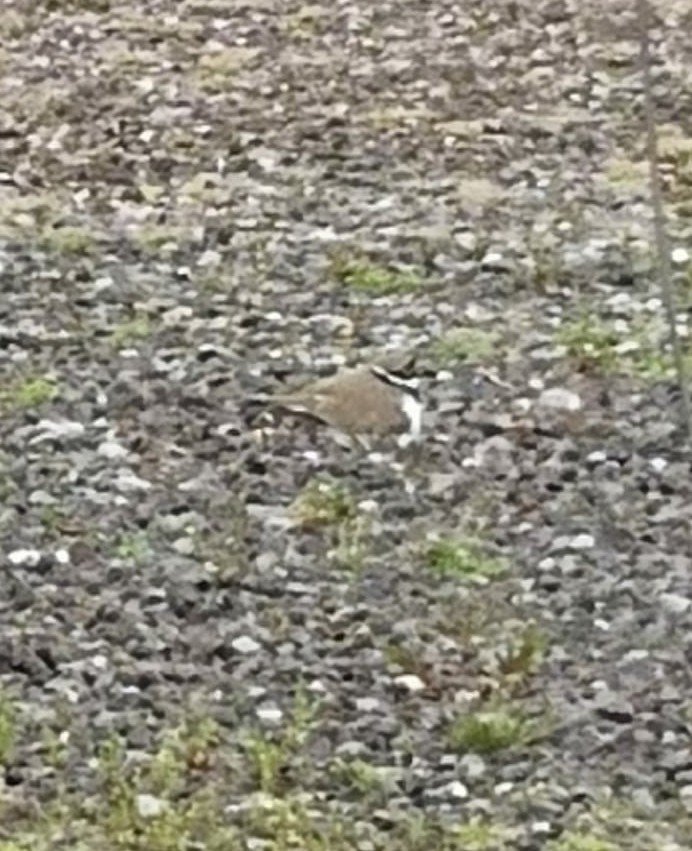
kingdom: Animalia
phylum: Chordata
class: Aves
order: Charadriiformes
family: Charadriidae
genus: Charadrius
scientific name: Charadrius dubius
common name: Little ringed plover
